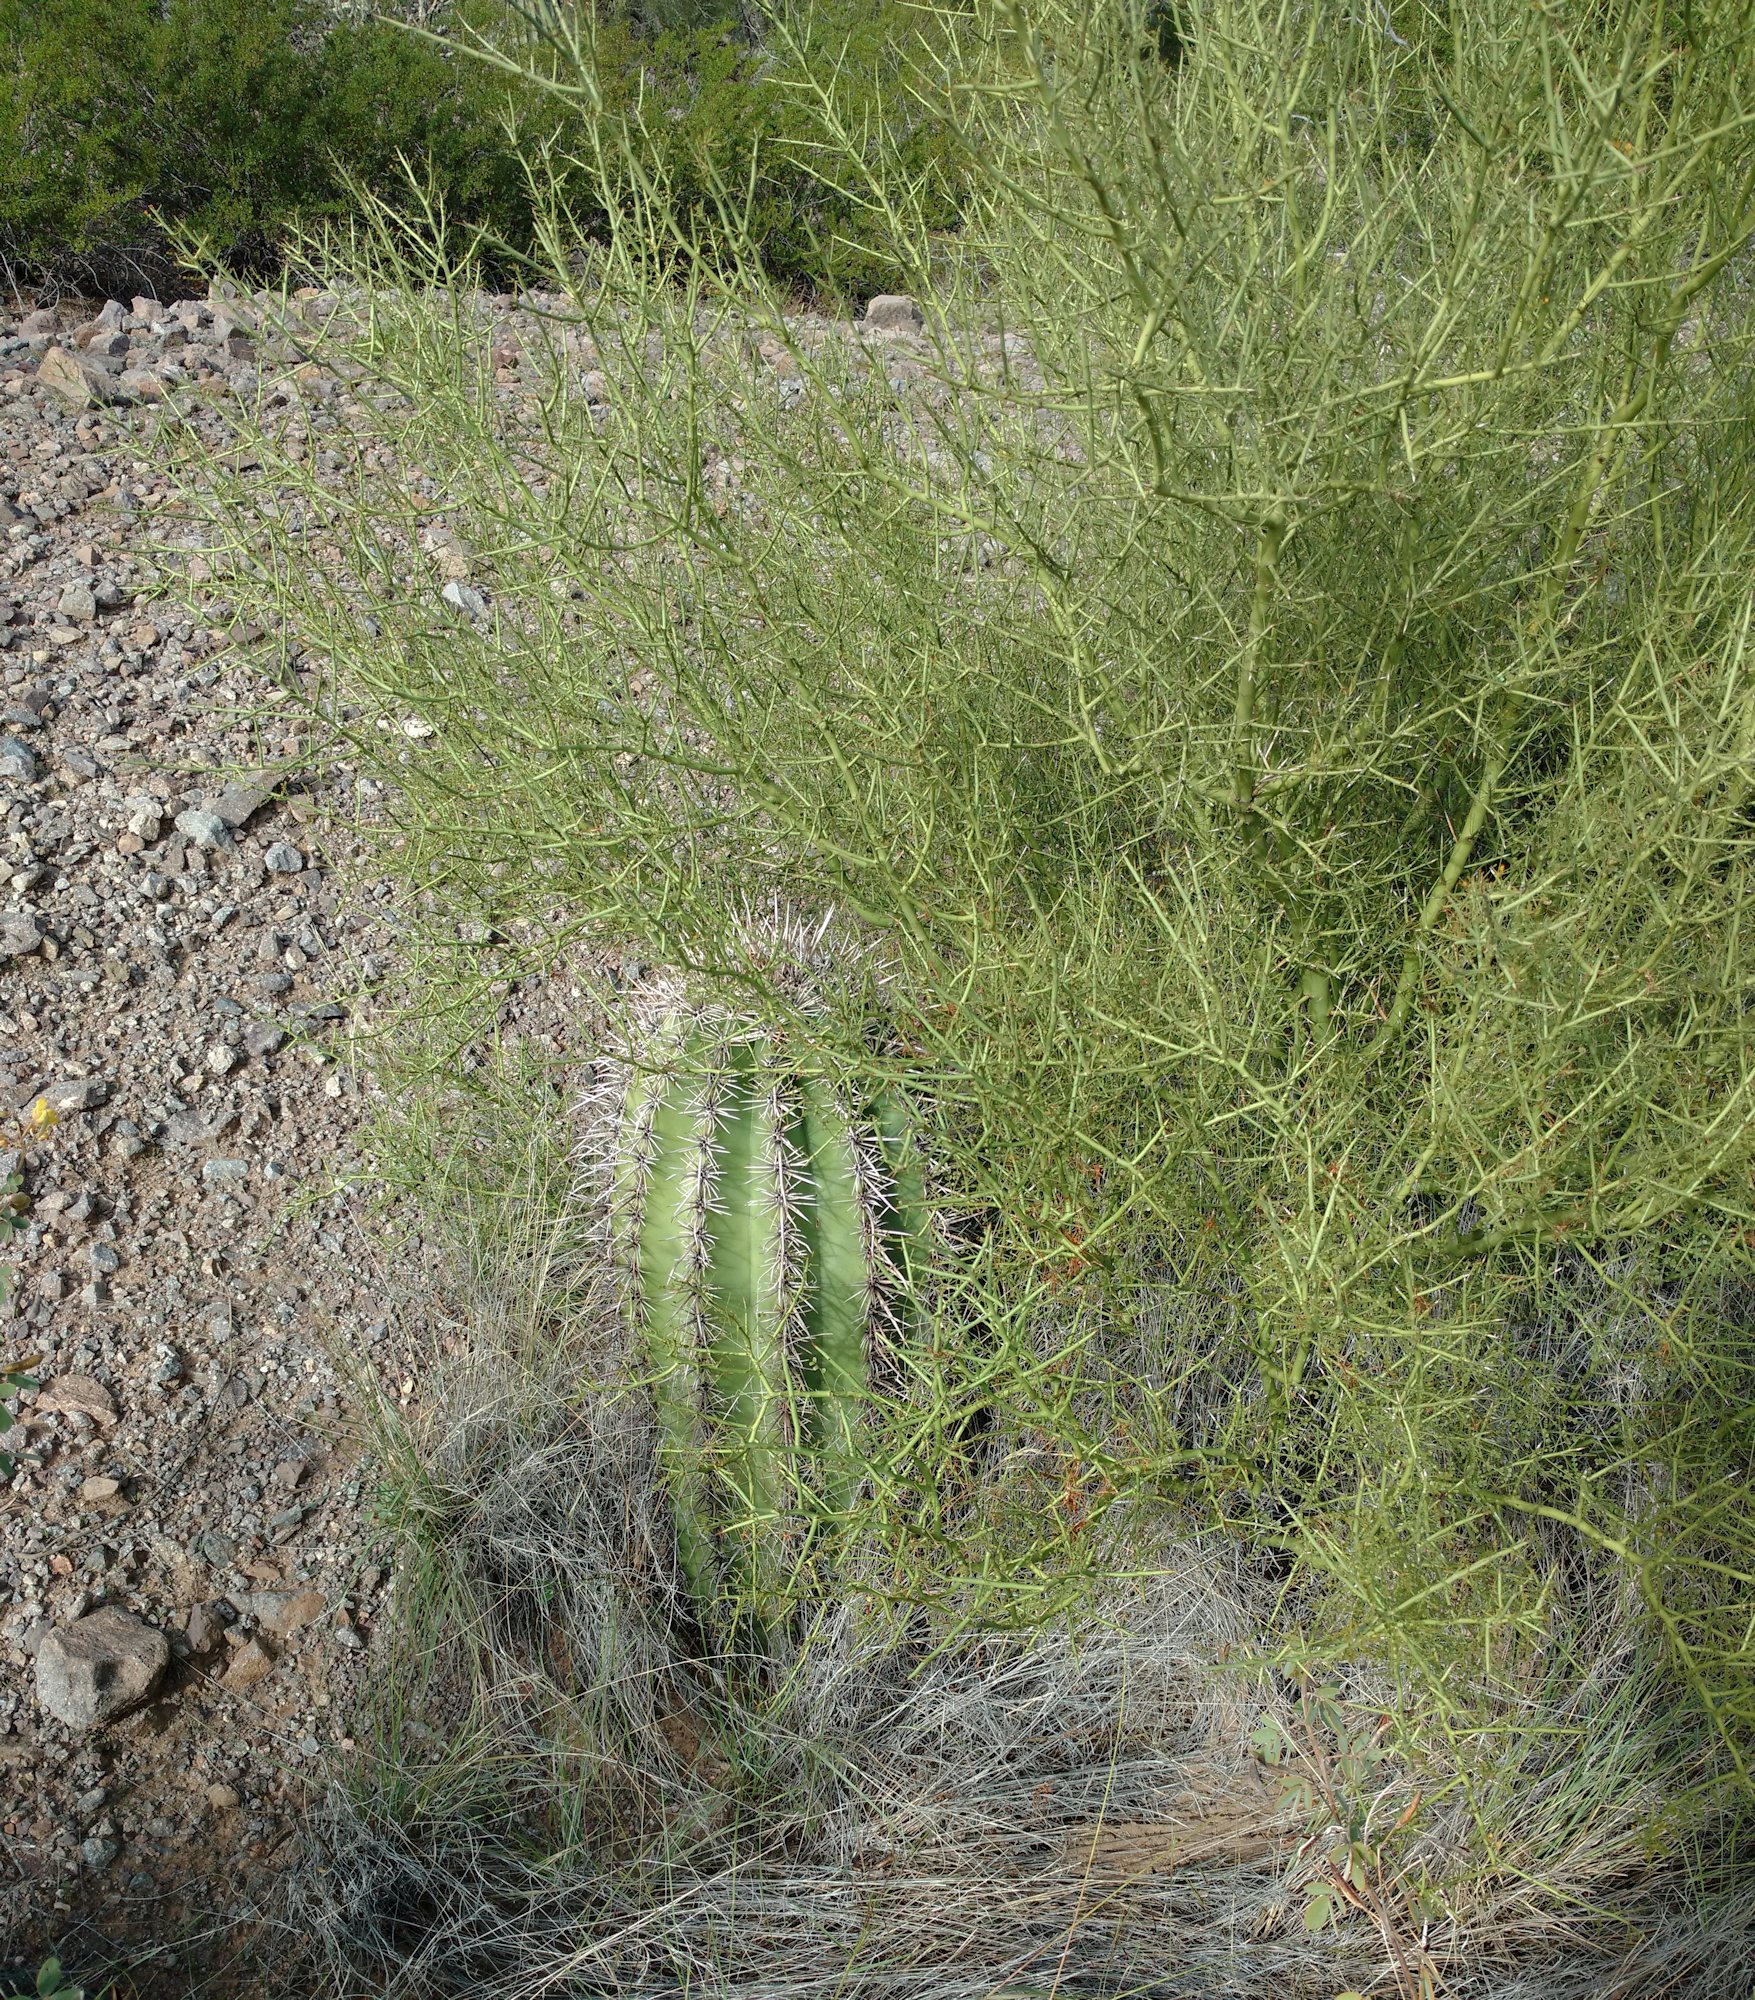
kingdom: Plantae
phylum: Tracheophyta
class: Magnoliopsida
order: Fabales
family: Fabaceae
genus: Parkinsonia
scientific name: Parkinsonia microphylla
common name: Yellow paloverde
